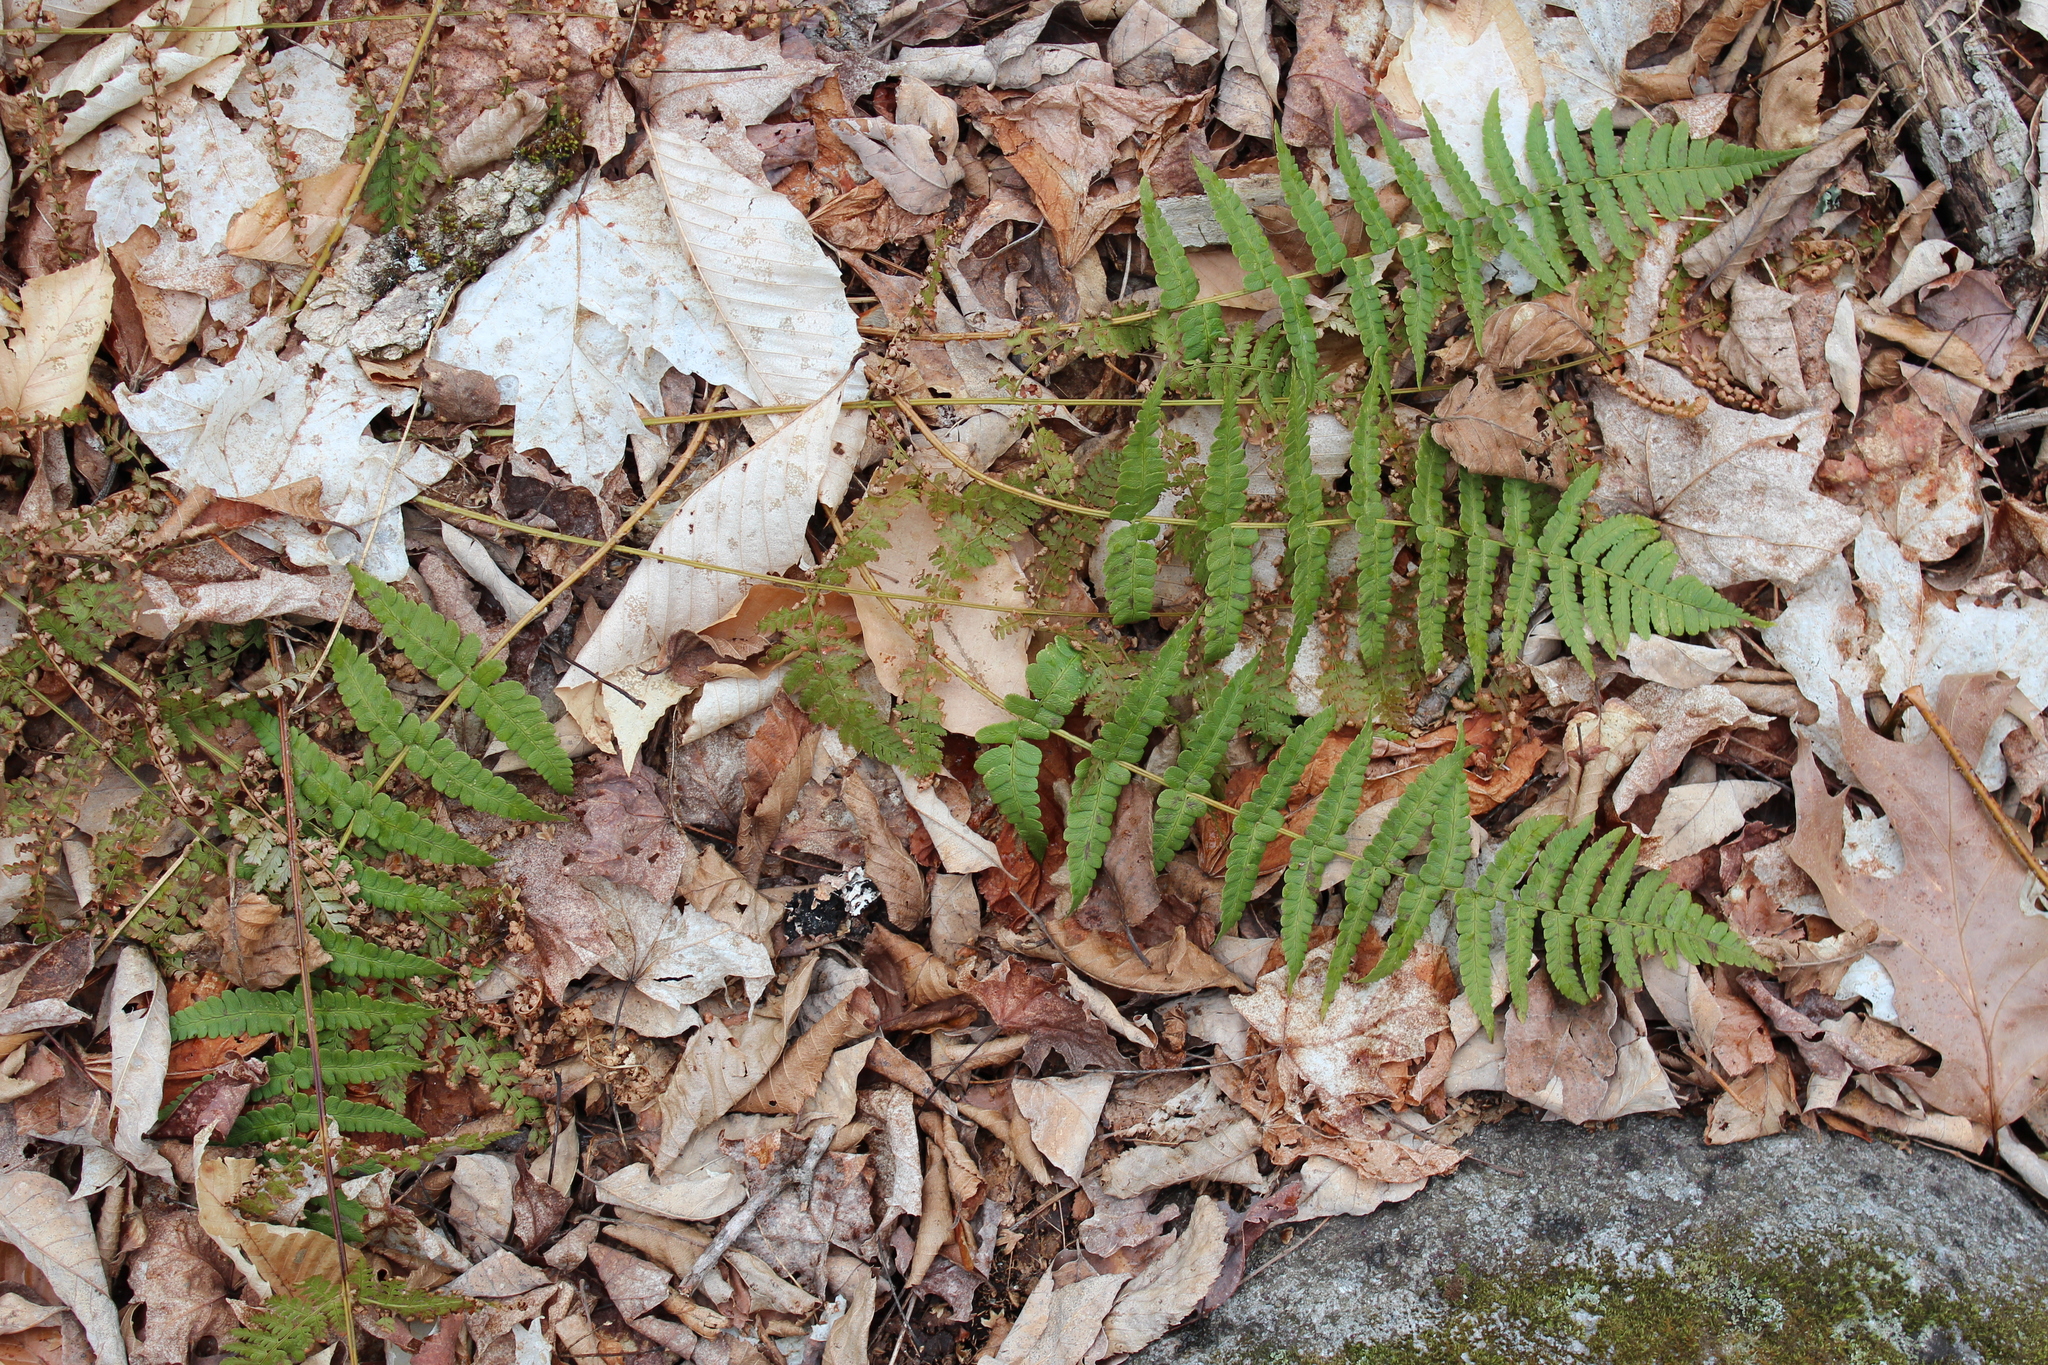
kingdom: Plantae
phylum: Tracheophyta
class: Polypodiopsida
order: Polypodiales
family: Dryopteridaceae
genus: Dryopteris
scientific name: Dryopteris marginalis
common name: Marginal wood fern
